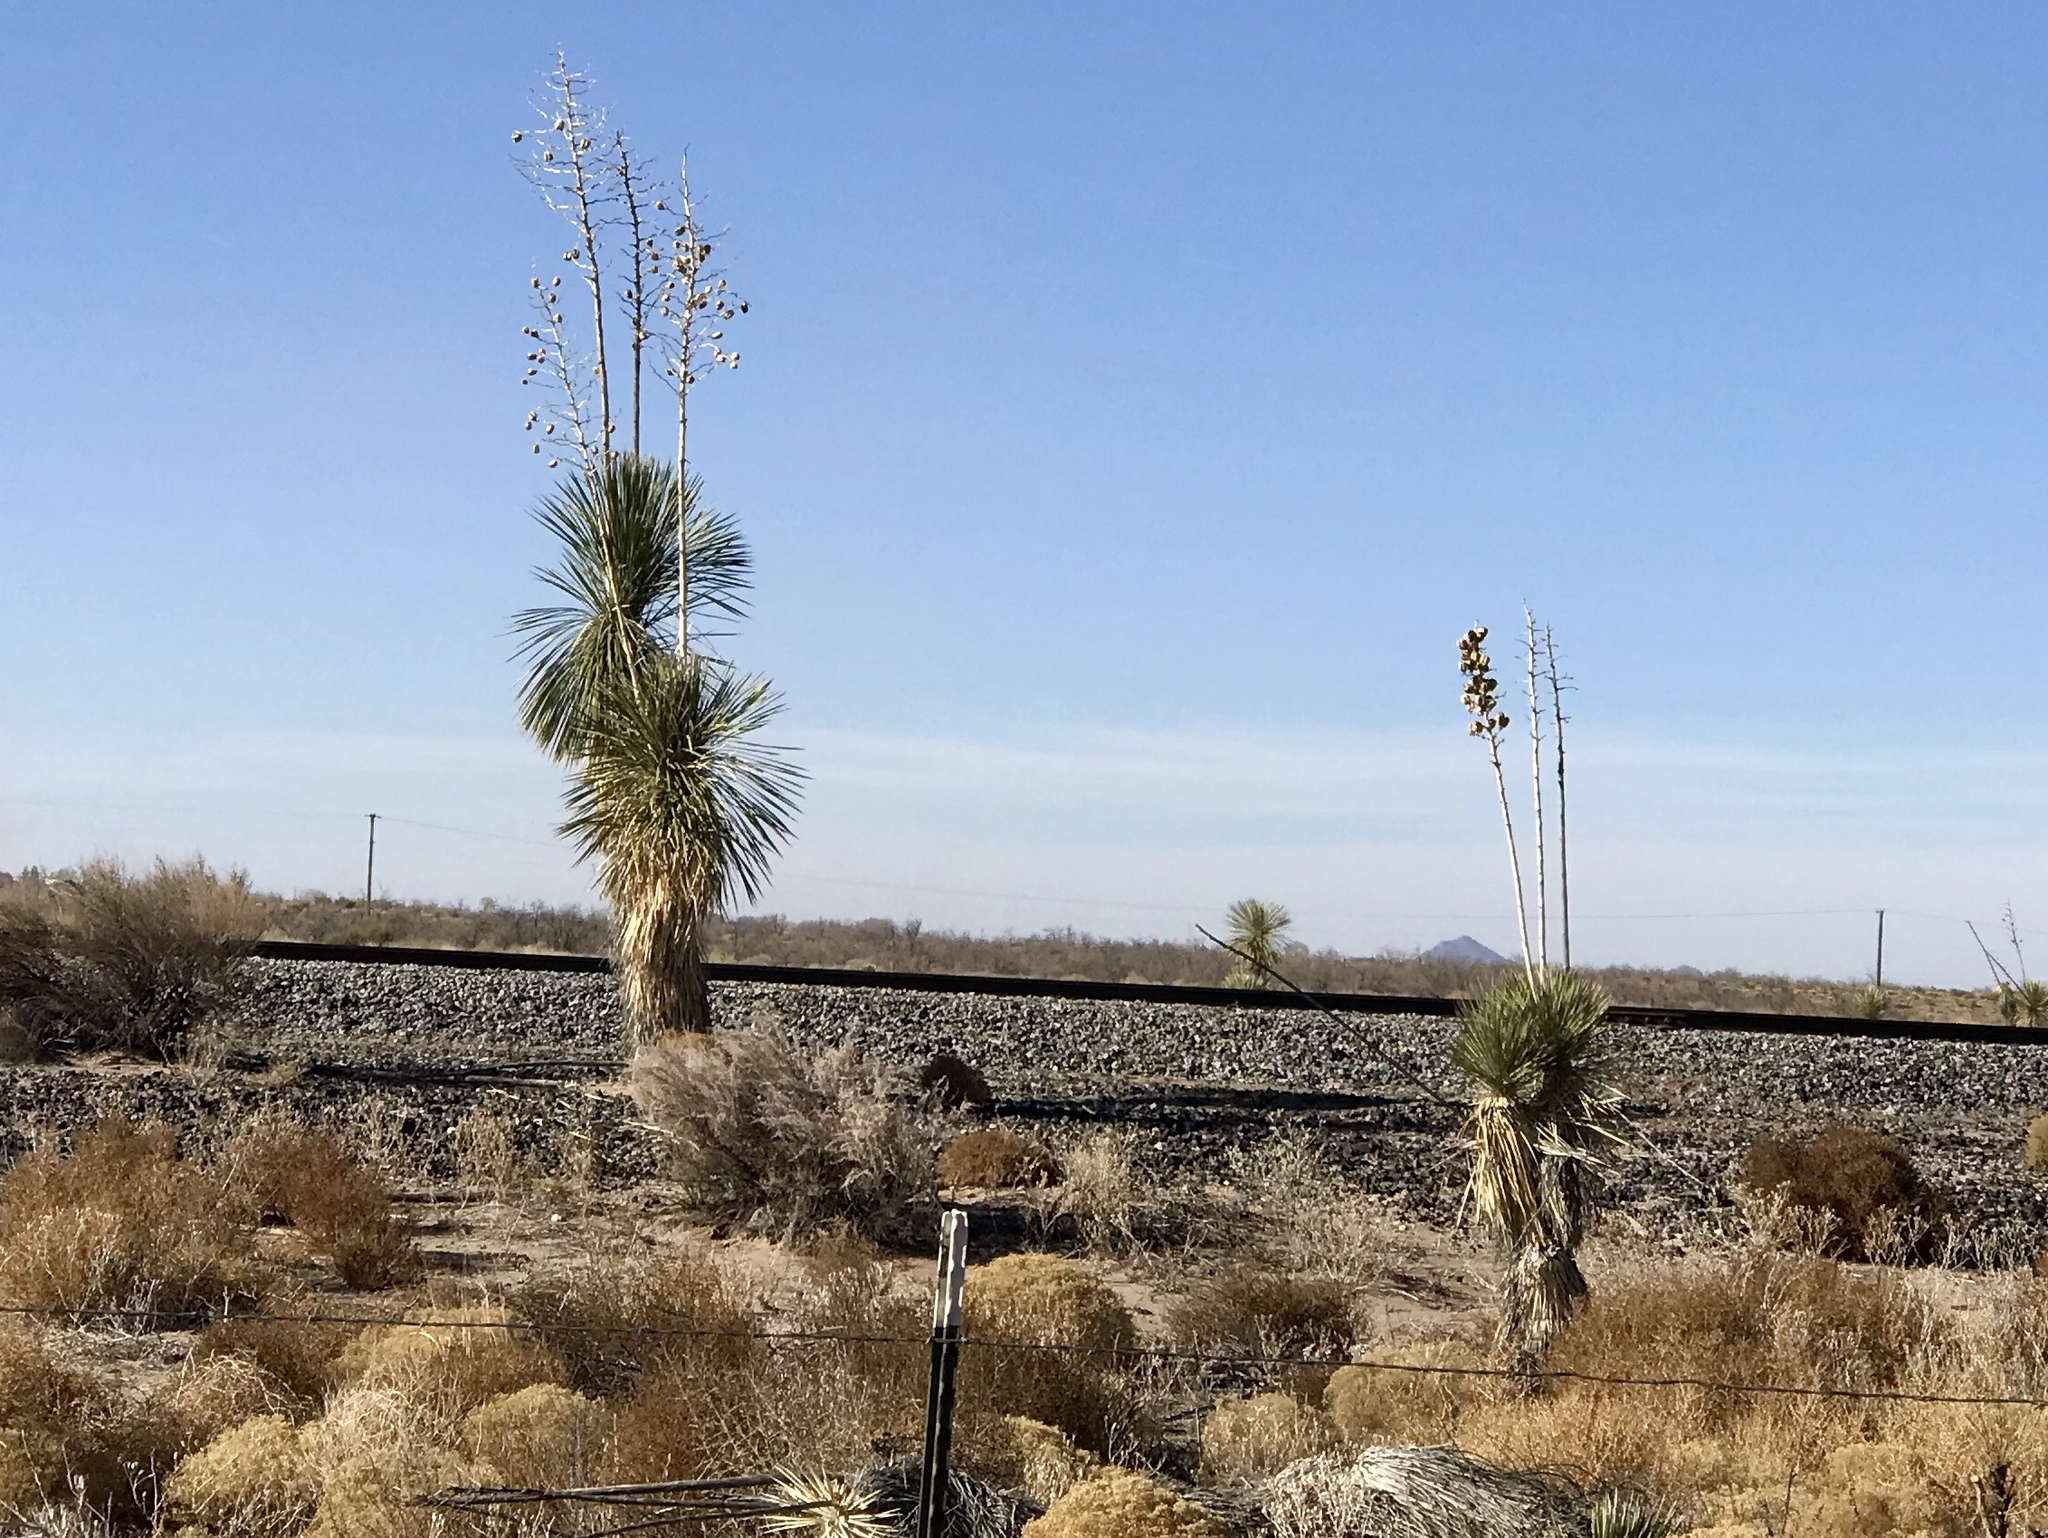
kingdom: Plantae
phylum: Tracheophyta
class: Liliopsida
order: Asparagales
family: Asparagaceae
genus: Yucca
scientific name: Yucca elata
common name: Palmella
